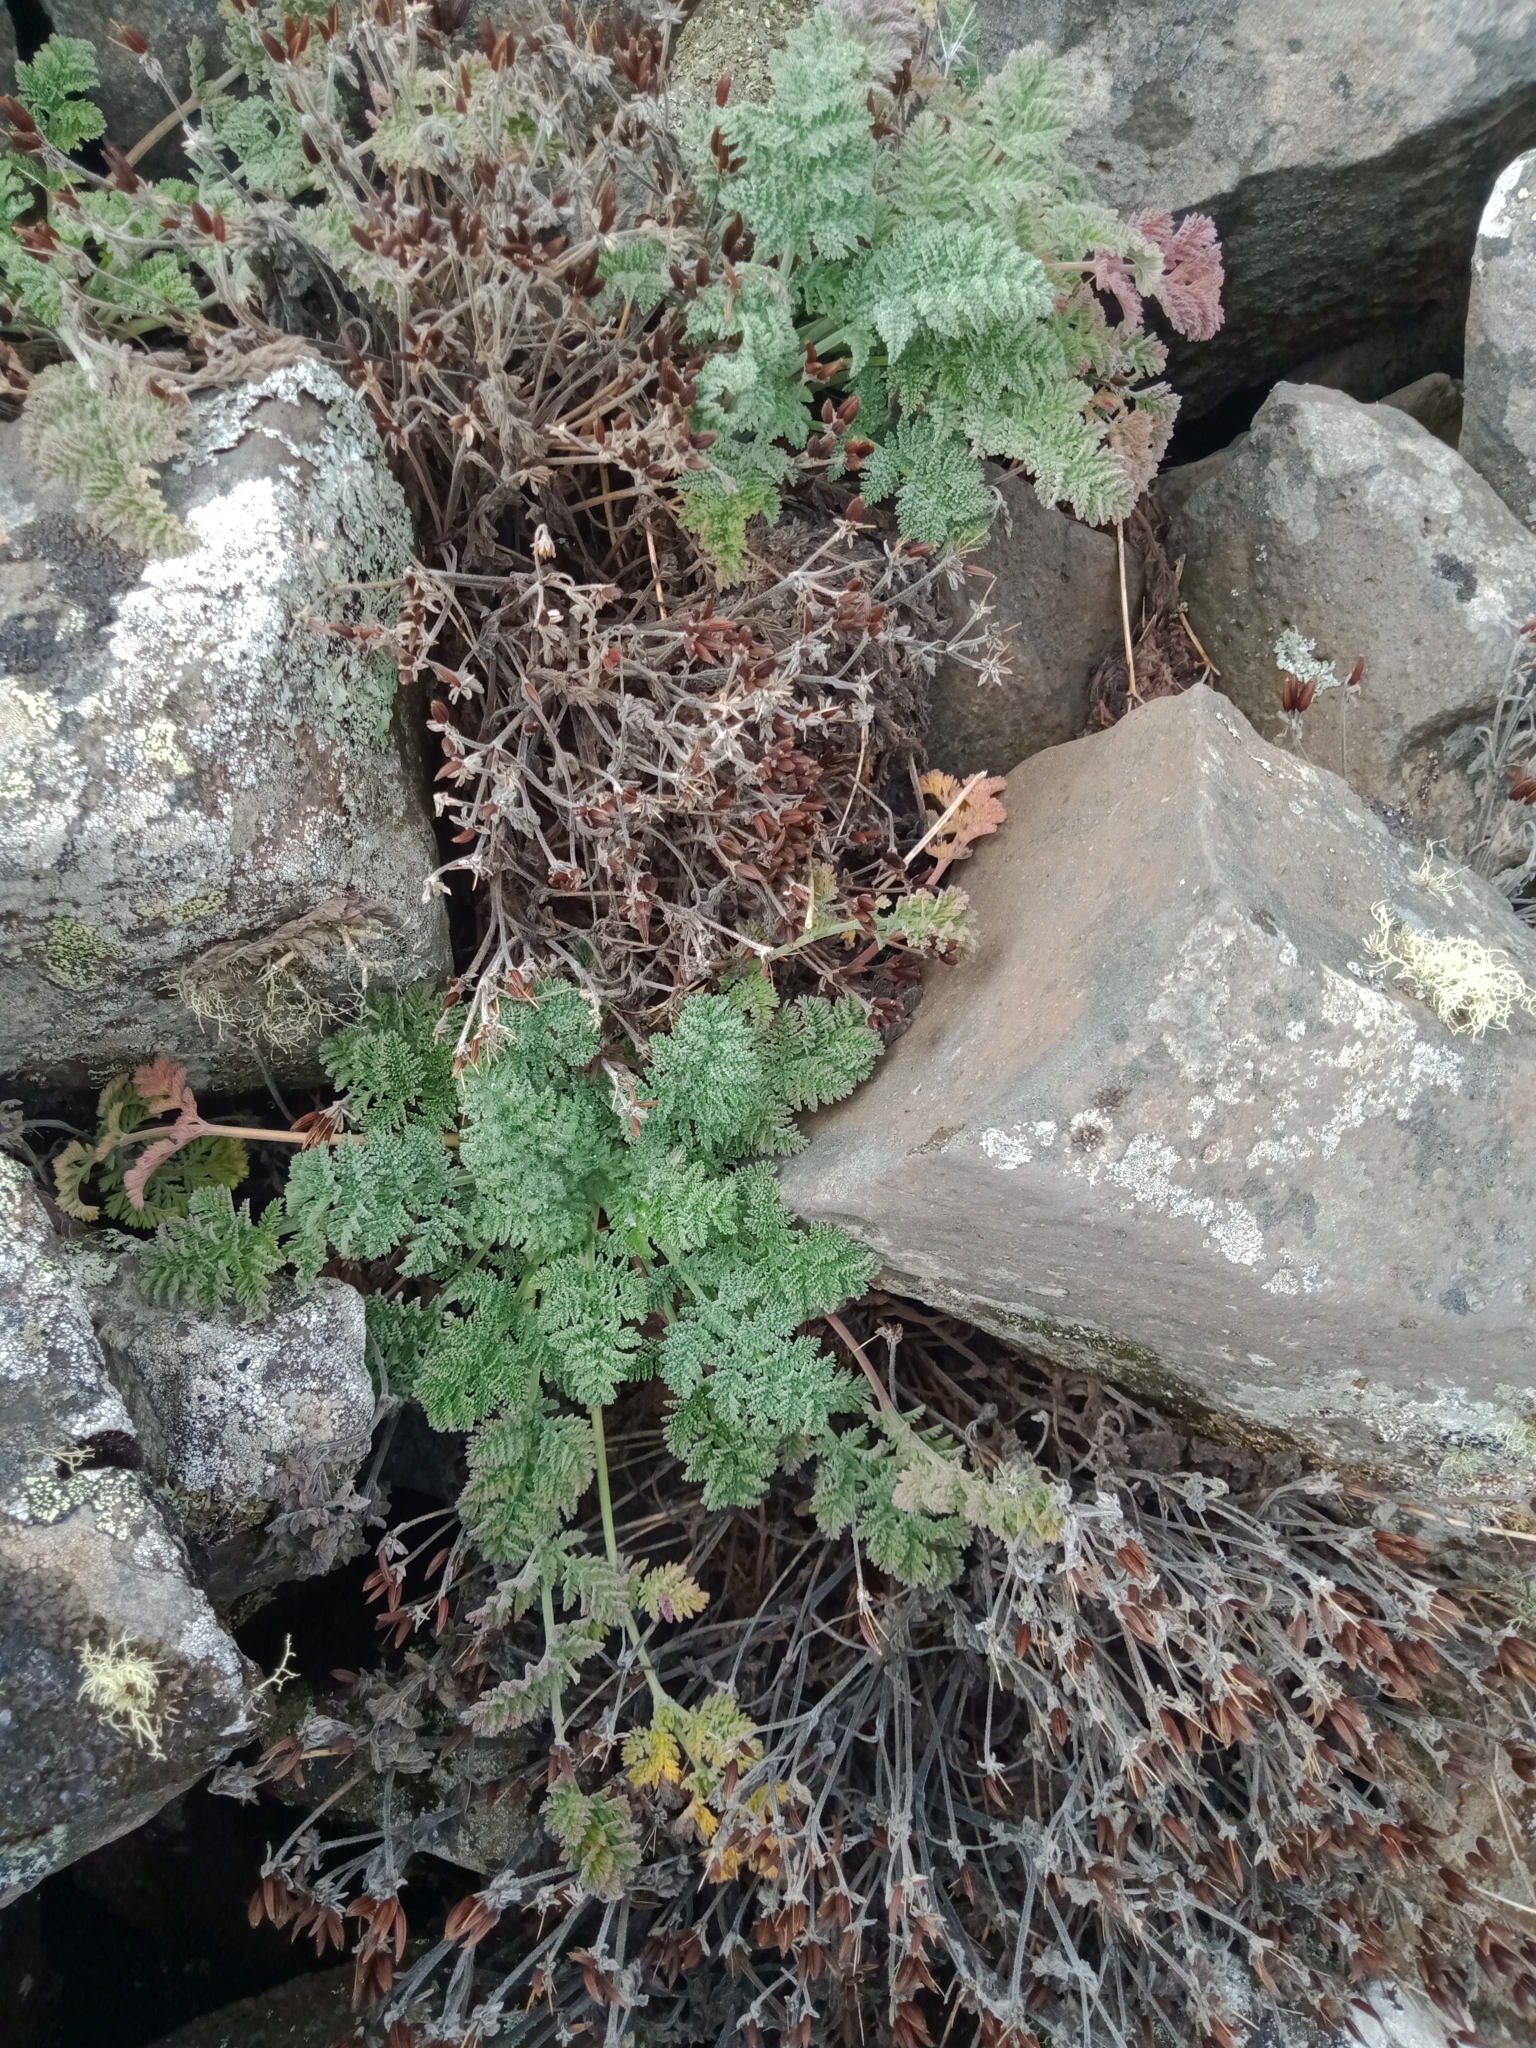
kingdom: Plantae
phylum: Tracheophyta
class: Magnoliopsida
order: Apiales
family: Apiaceae
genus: Chaerophyllum
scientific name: Chaerophyllum brevipes
